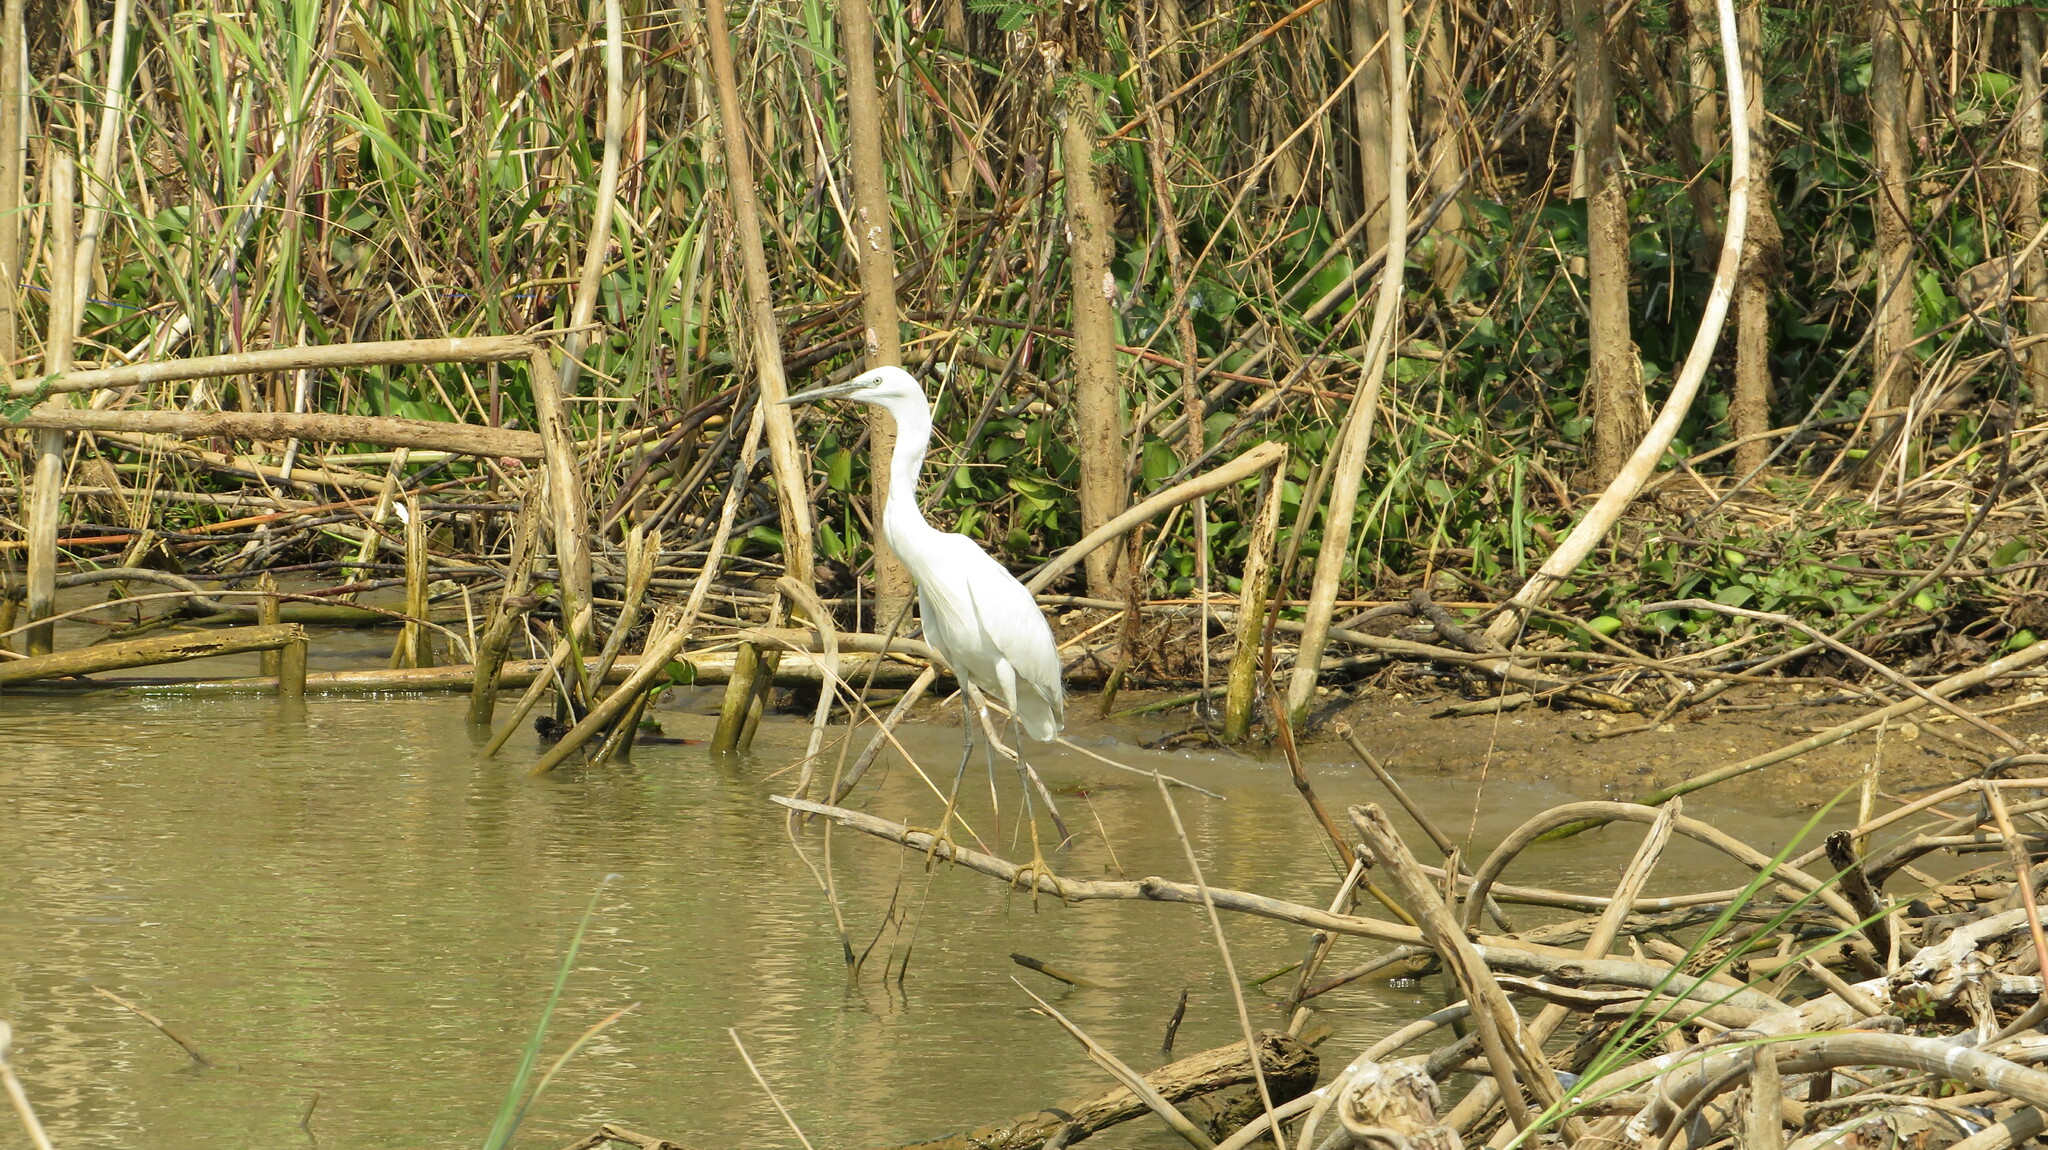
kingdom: Animalia
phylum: Chordata
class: Aves
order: Pelecaniformes
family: Ardeidae
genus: Egretta
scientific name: Egretta garzetta
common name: Little egret
